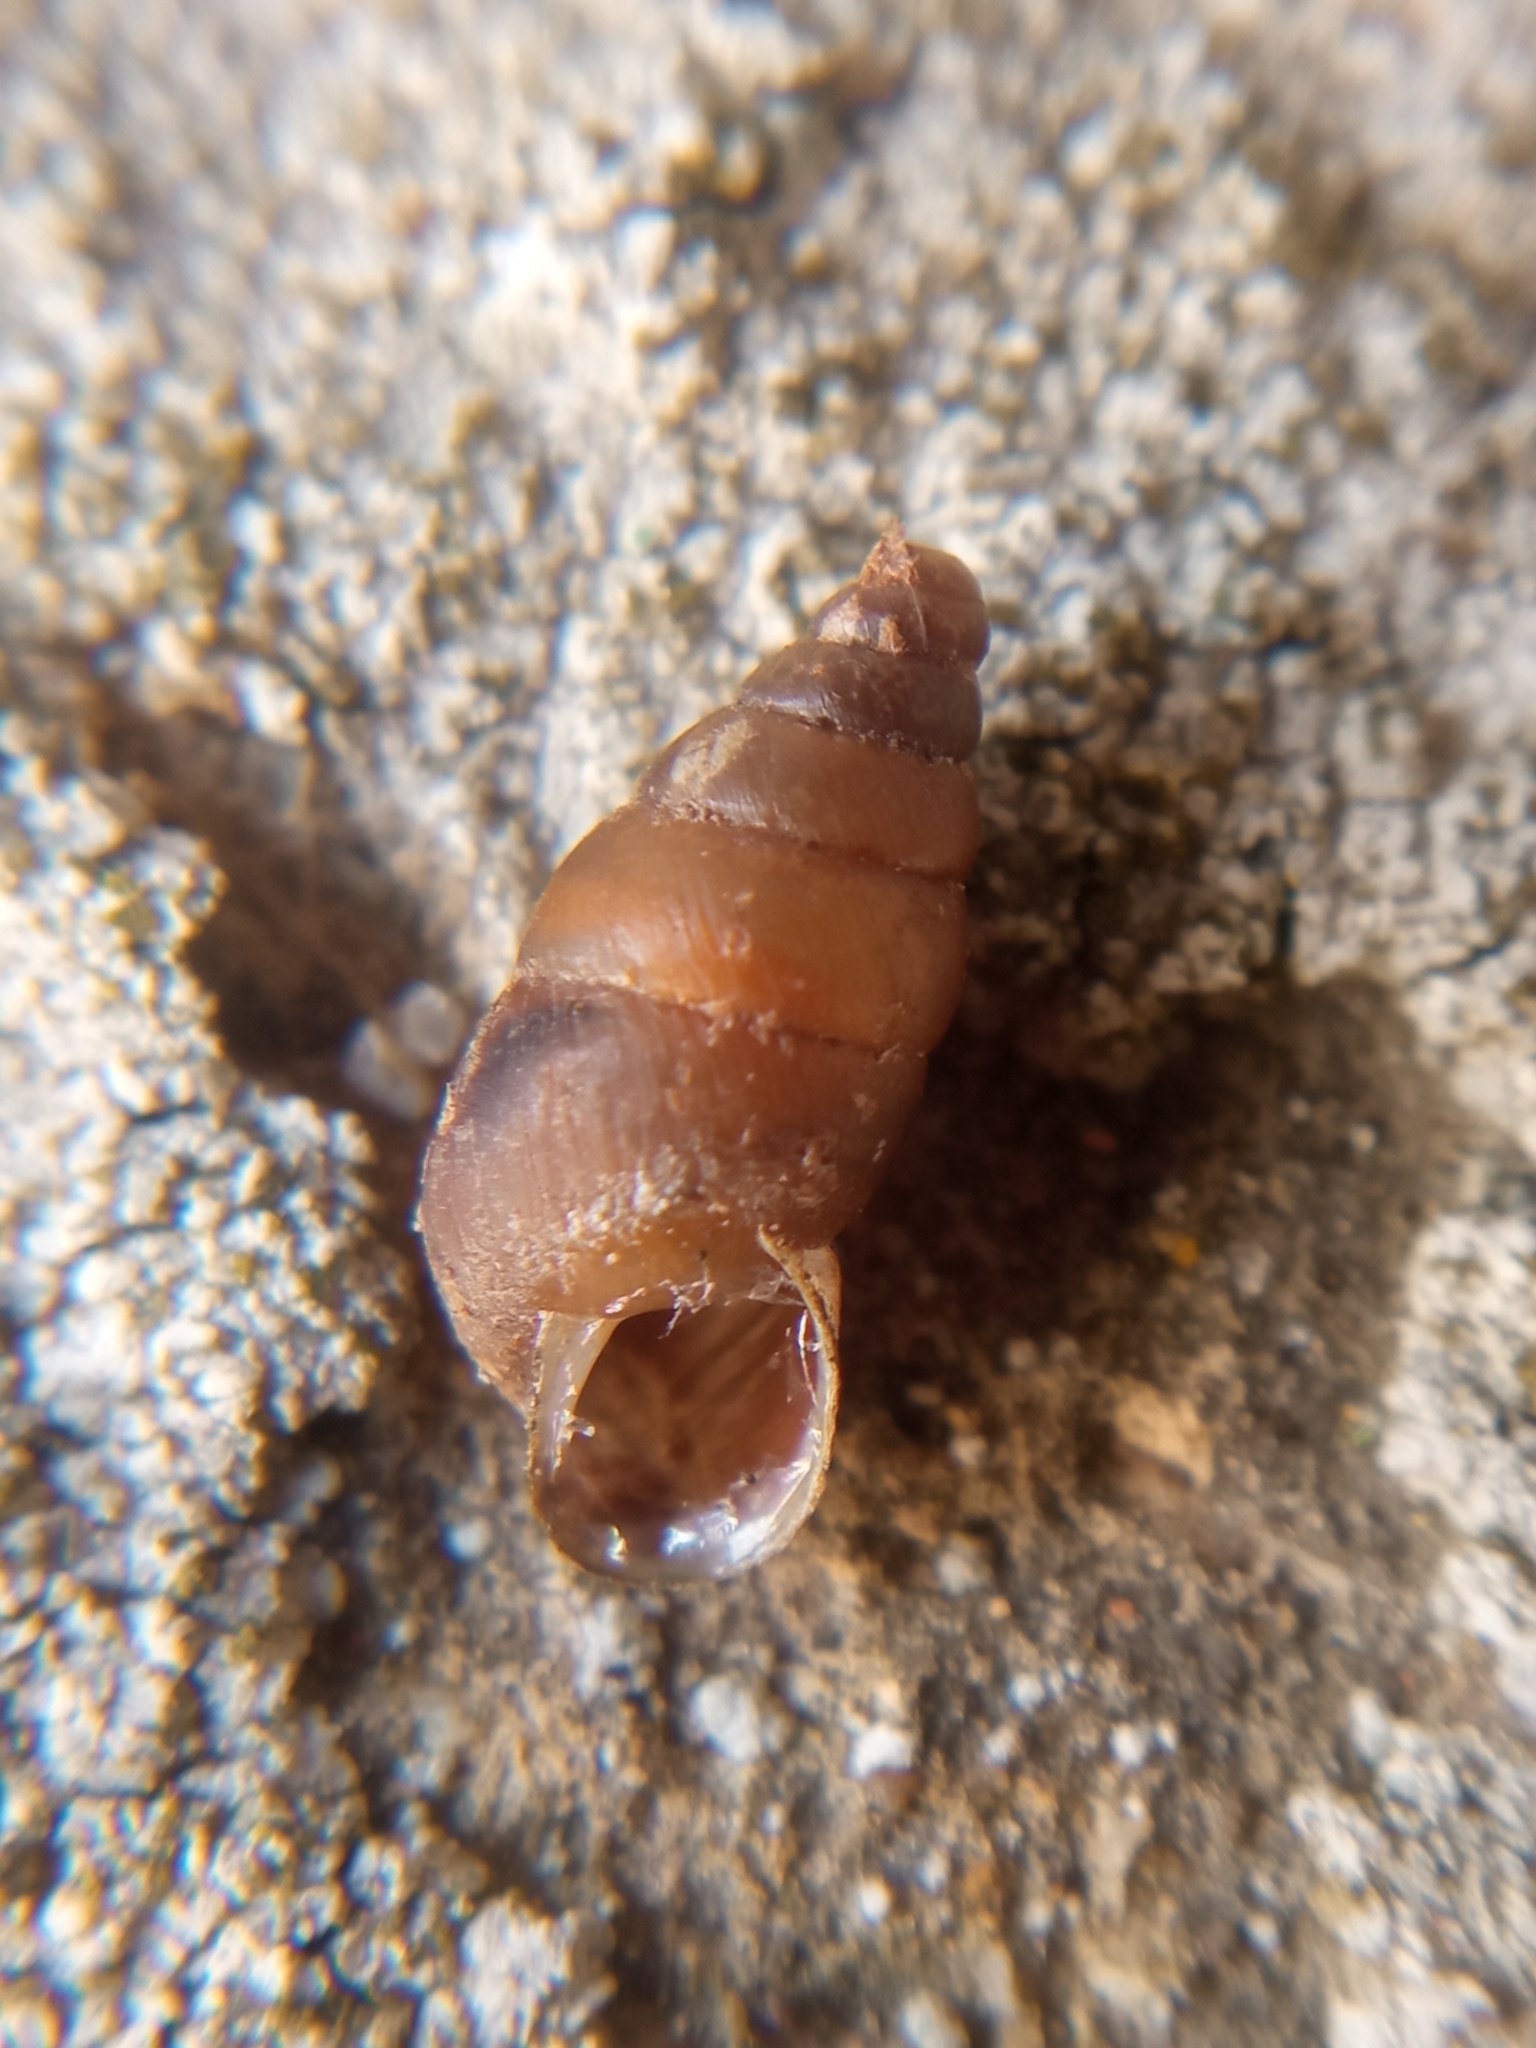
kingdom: Animalia
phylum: Mollusca
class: Gastropoda
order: Stylommatophora
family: Enidae
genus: Merdigera
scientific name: Merdigera obscura
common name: Lesser bulin
